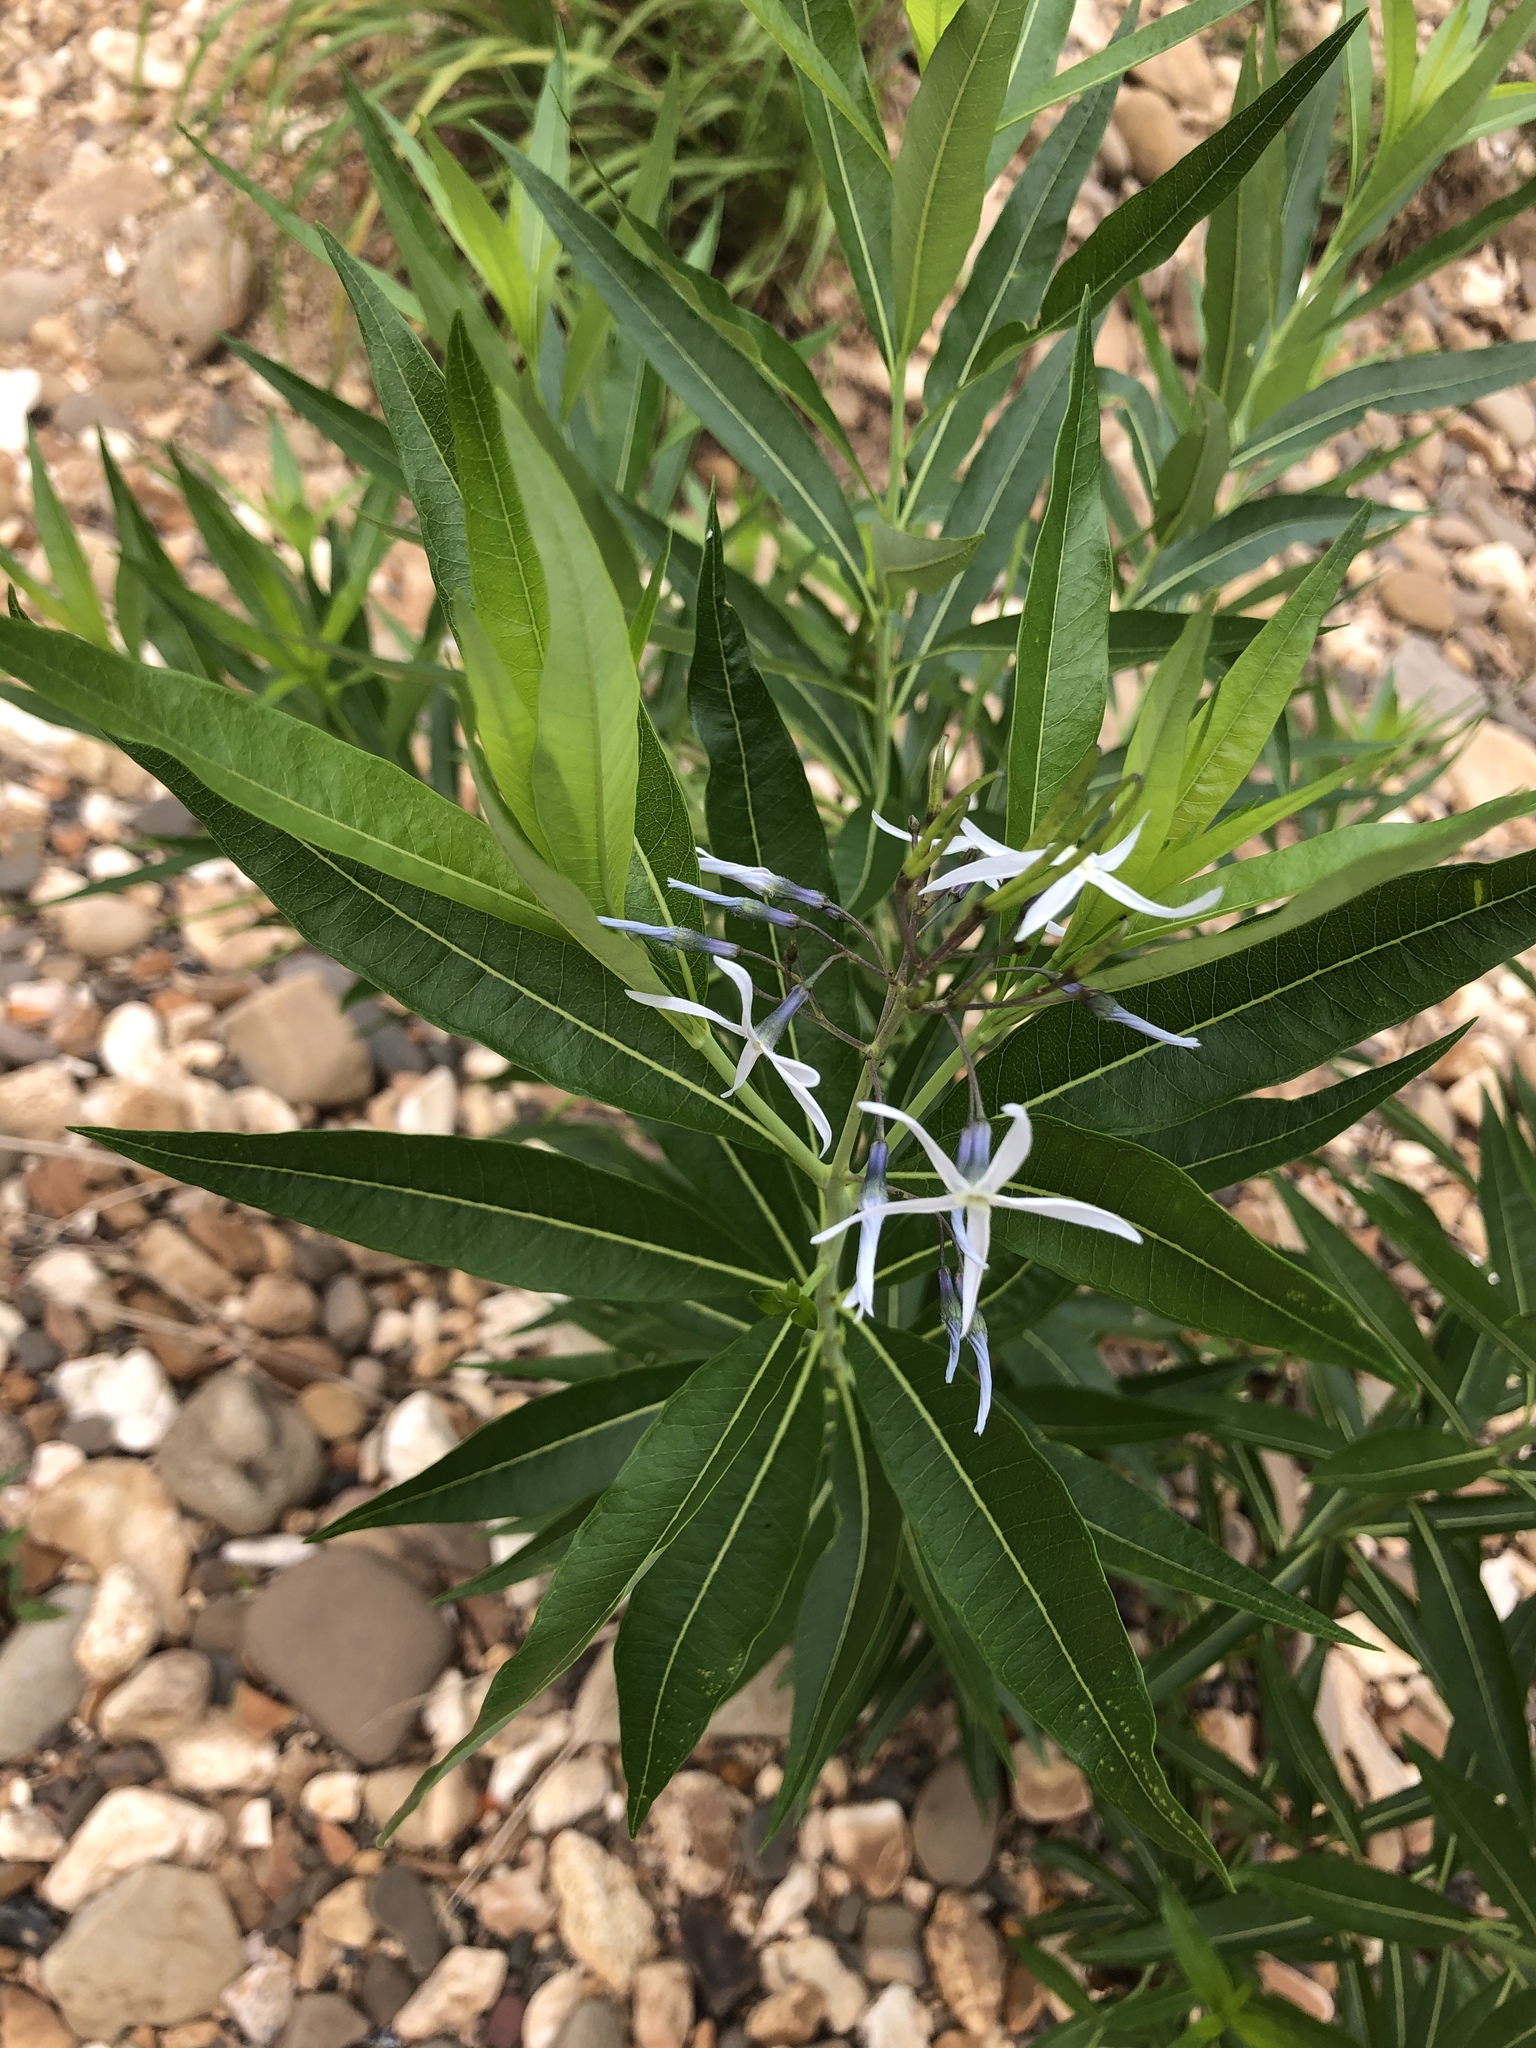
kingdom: Plantae
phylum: Tracheophyta
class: Magnoliopsida
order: Gentianales
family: Apocynaceae
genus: Amsonia
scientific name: Amsonia tabernaemontana
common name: Texas-star
